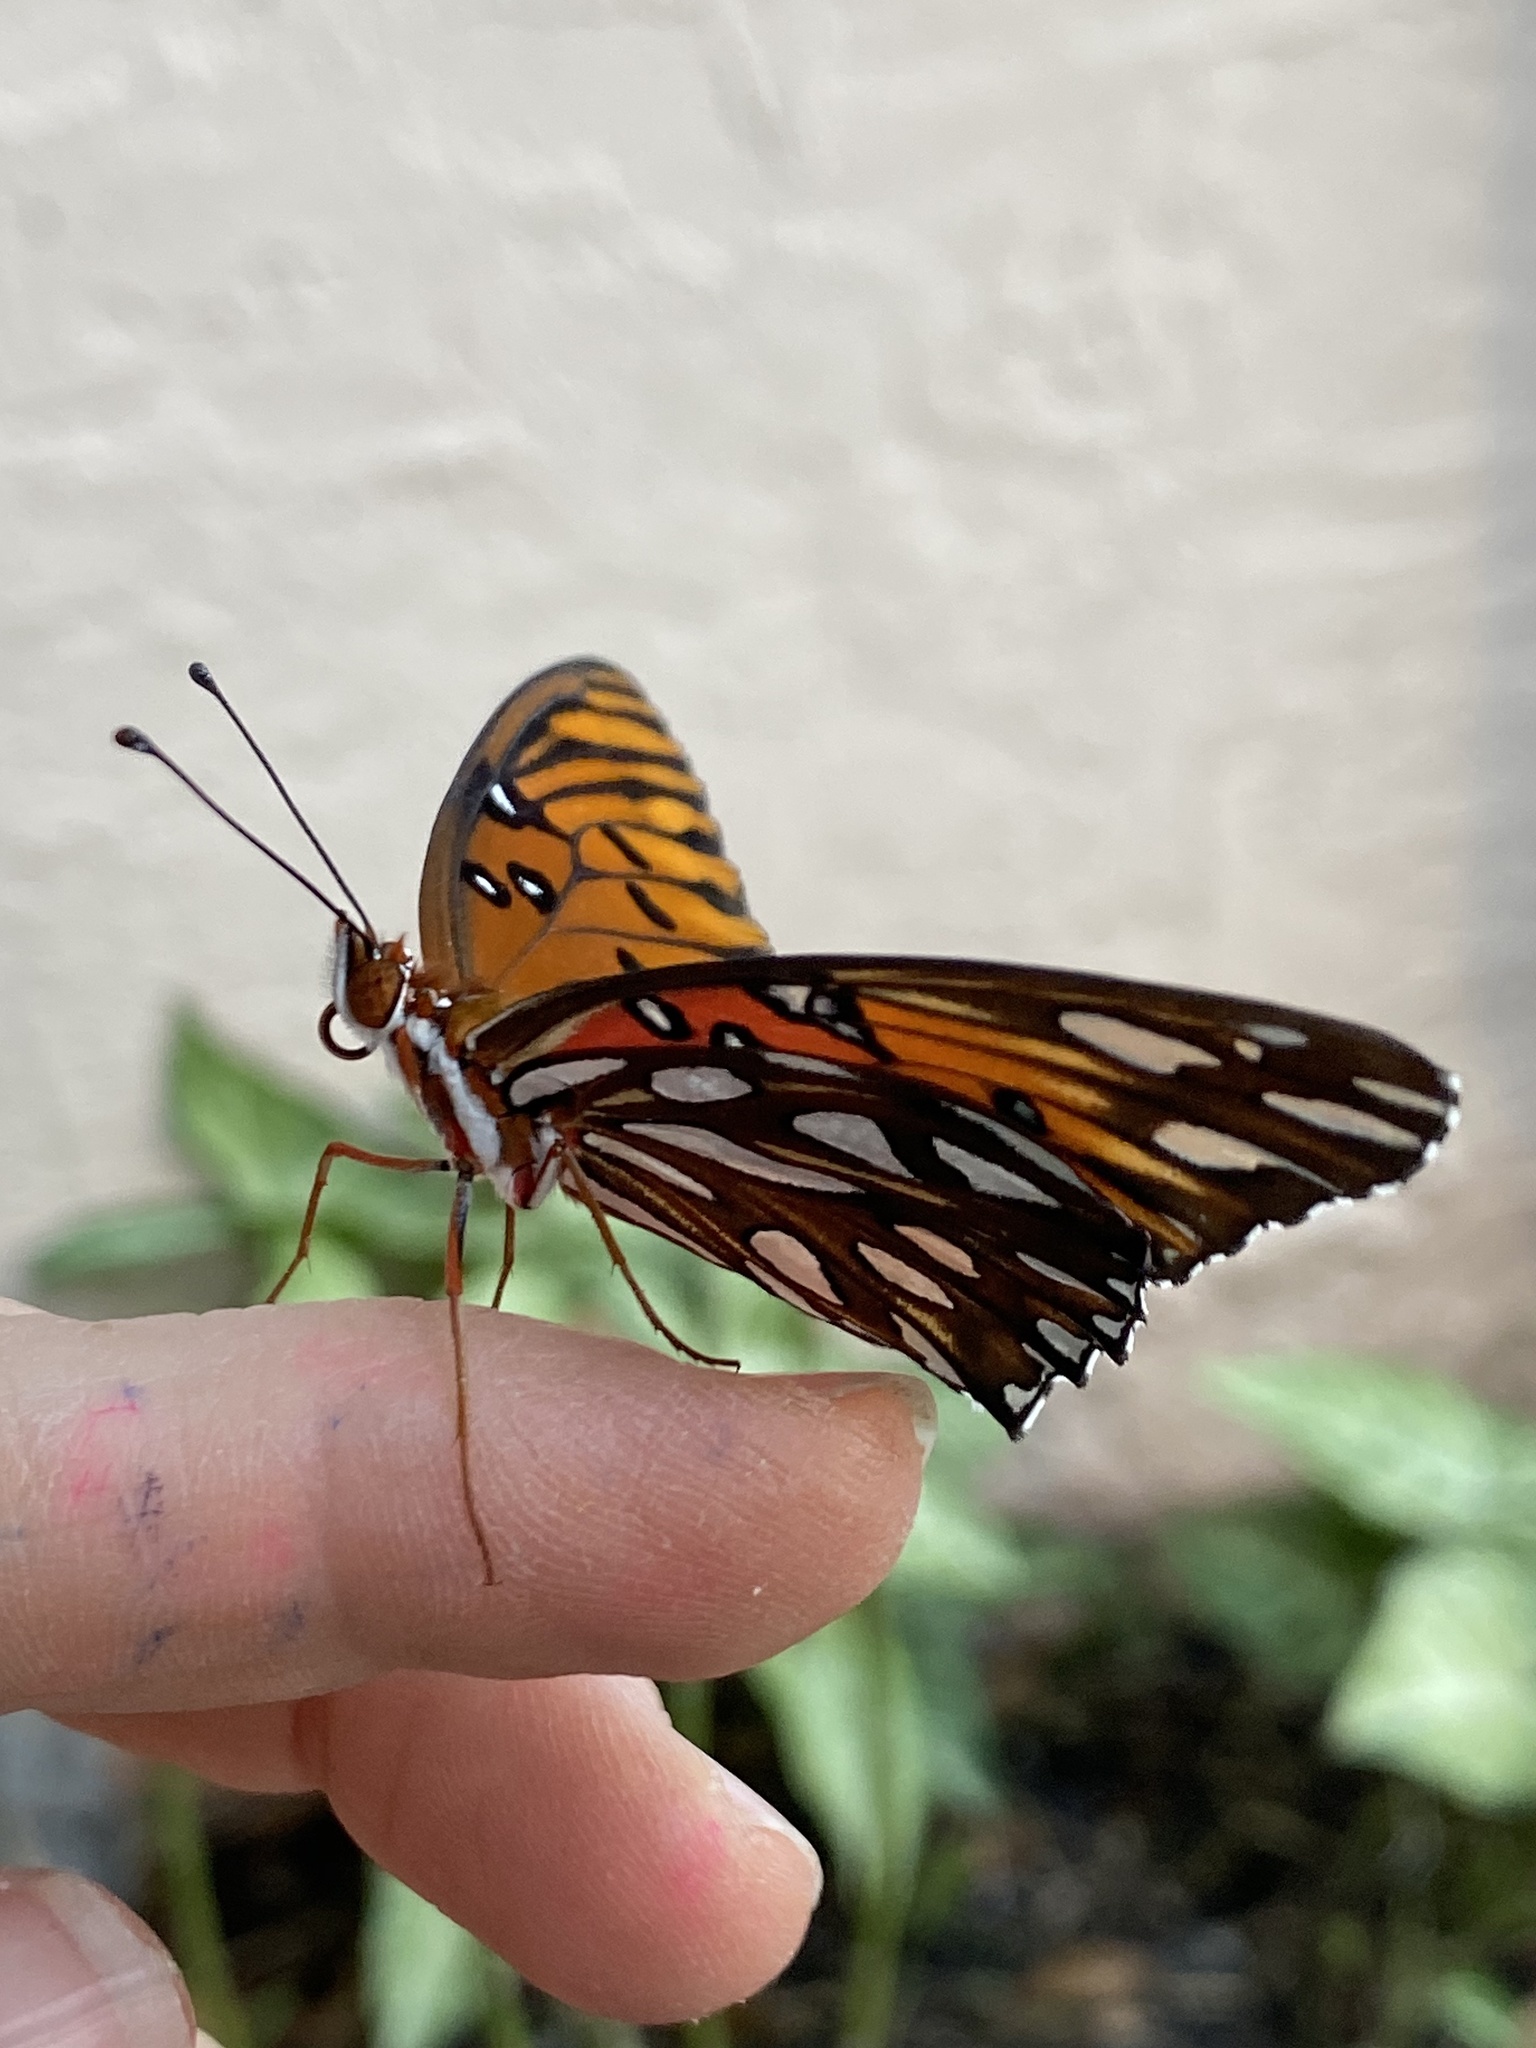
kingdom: Animalia
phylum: Arthropoda
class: Insecta
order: Lepidoptera
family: Nymphalidae
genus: Dione
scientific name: Dione vanillae
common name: Gulf fritillary
